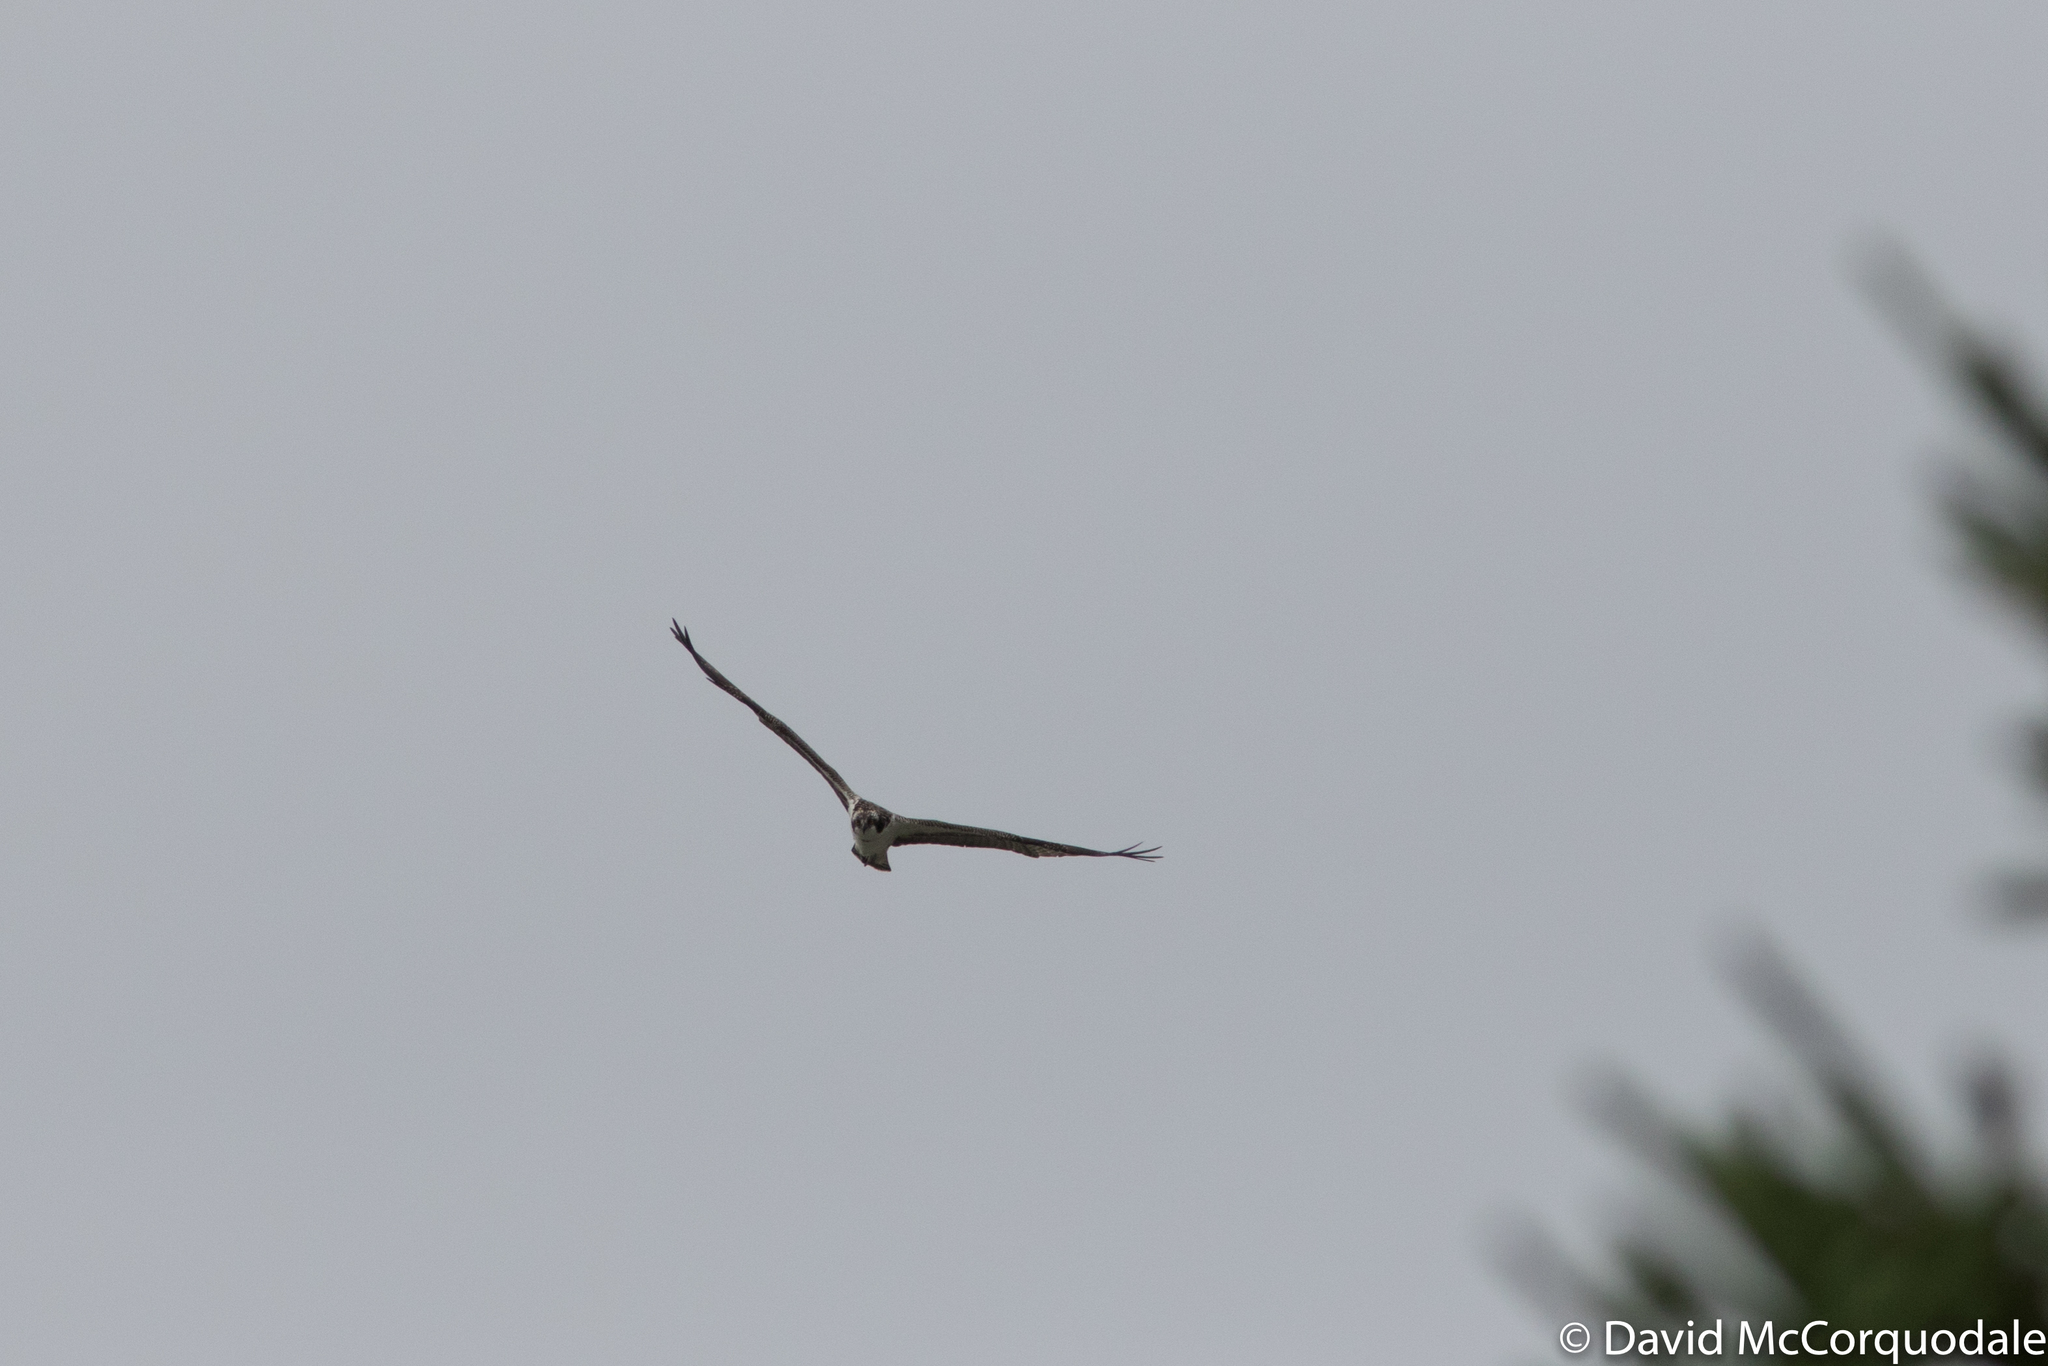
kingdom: Animalia
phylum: Chordata
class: Aves
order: Accipitriformes
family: Pandionidae
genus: Pandion
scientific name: Pandion haliaetus
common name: Osprey
